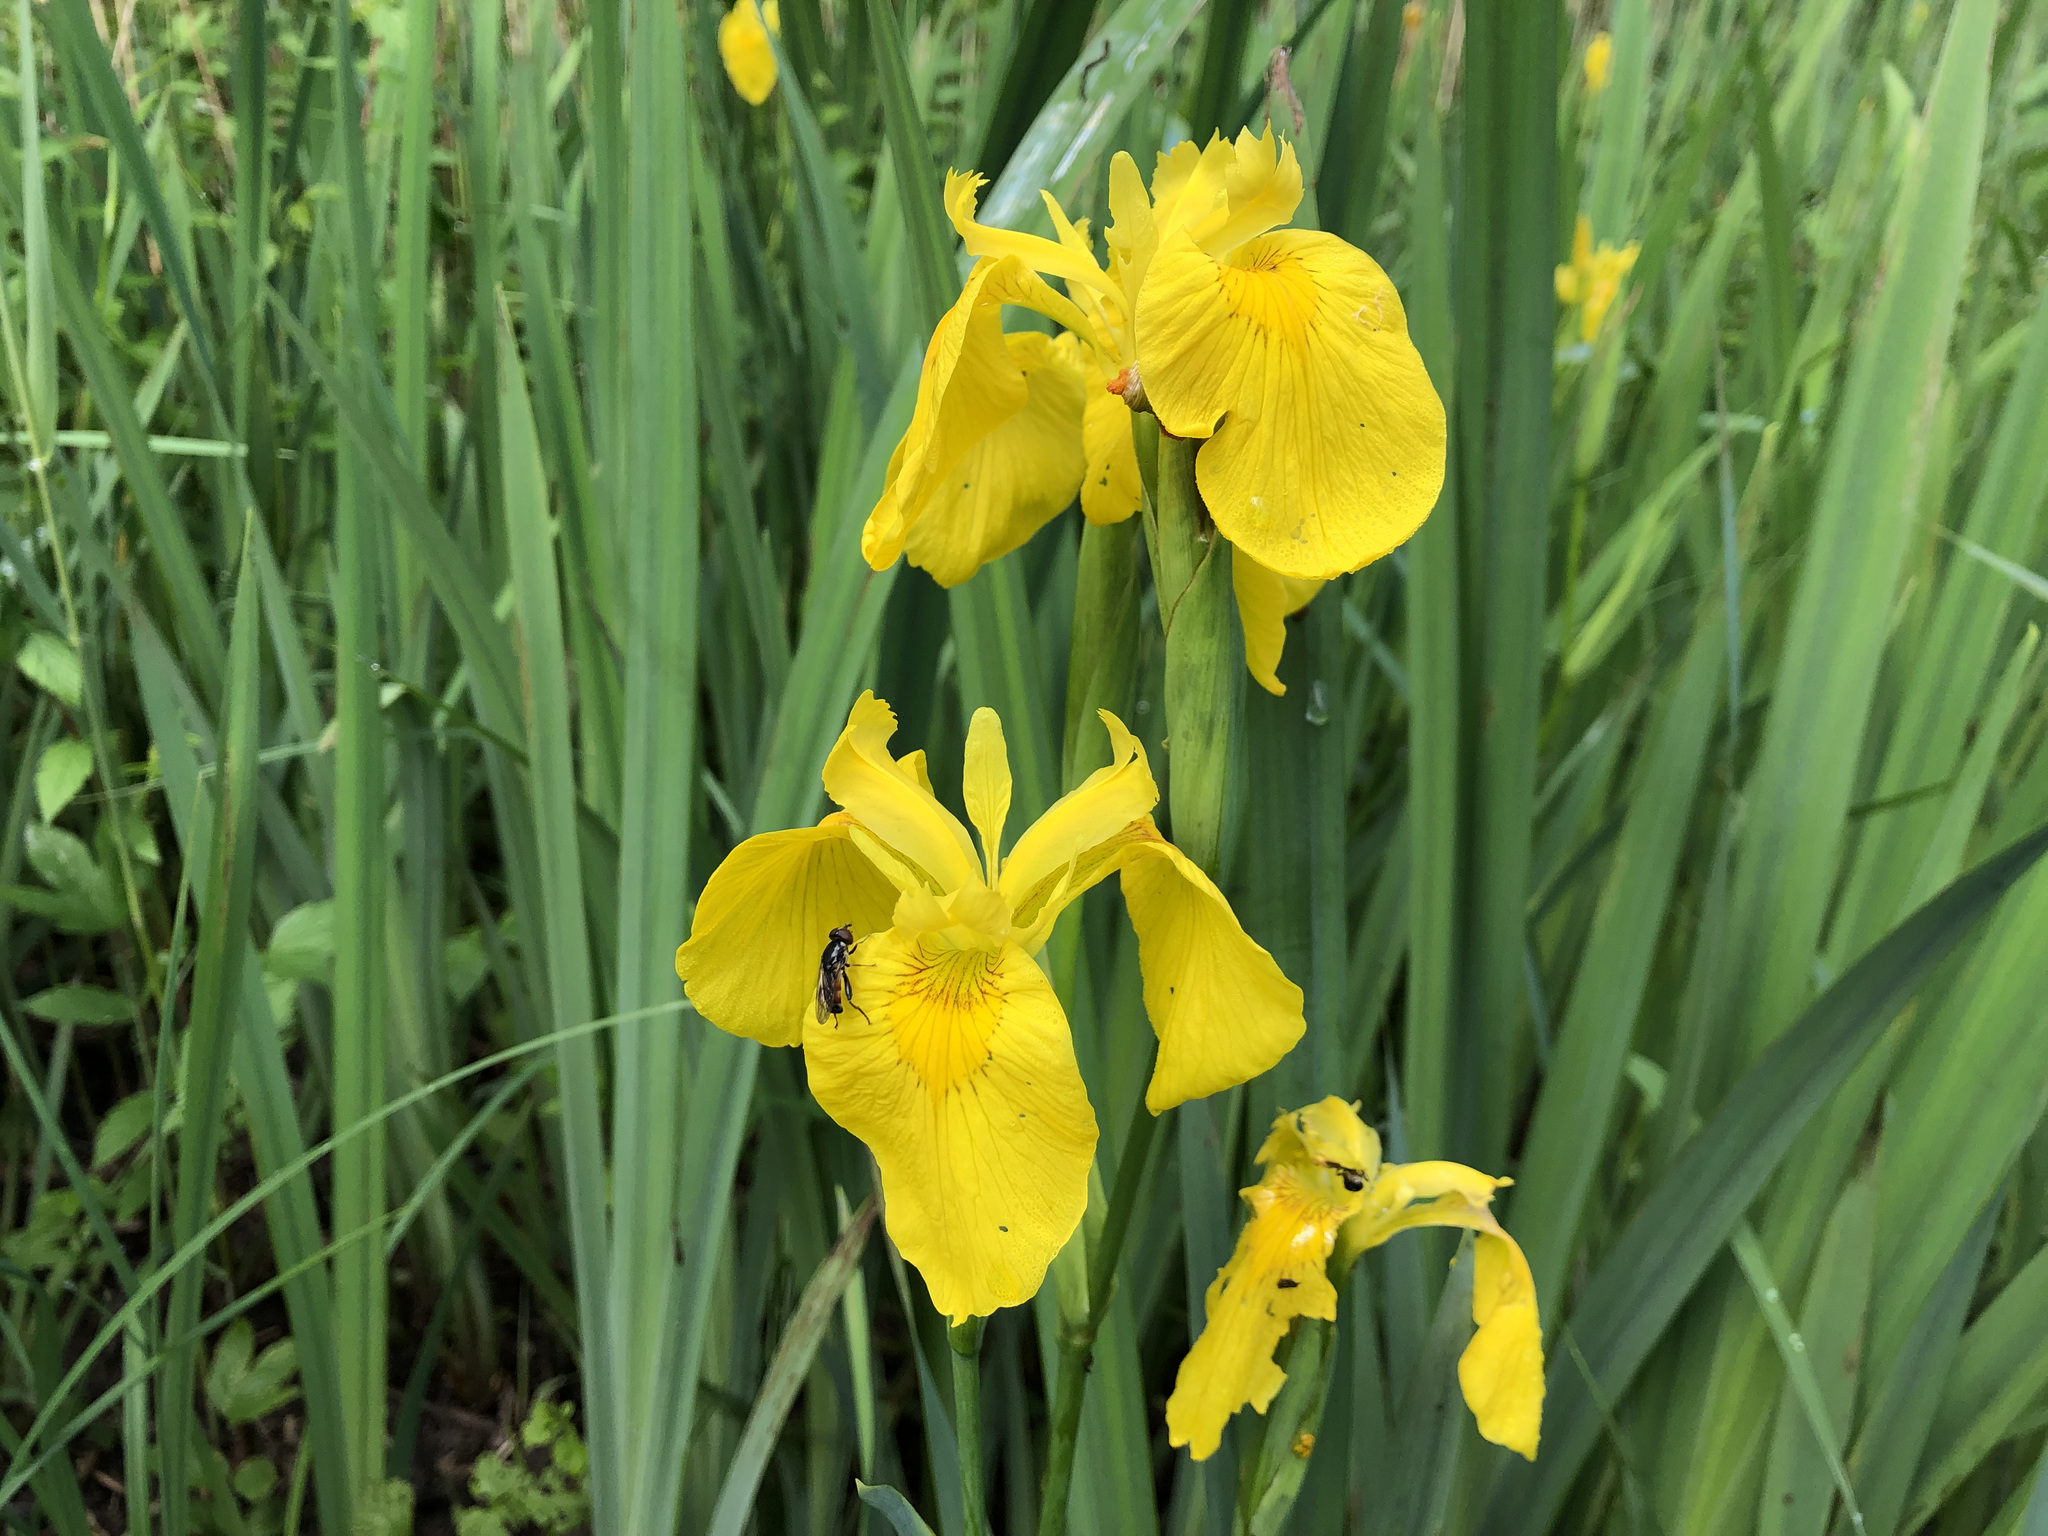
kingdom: Plantae
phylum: Tracheophyta
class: Liliopsida
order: Asparagales
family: Iridaceae
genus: Iris
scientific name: Iris pseudacorus
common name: Yellow flag
